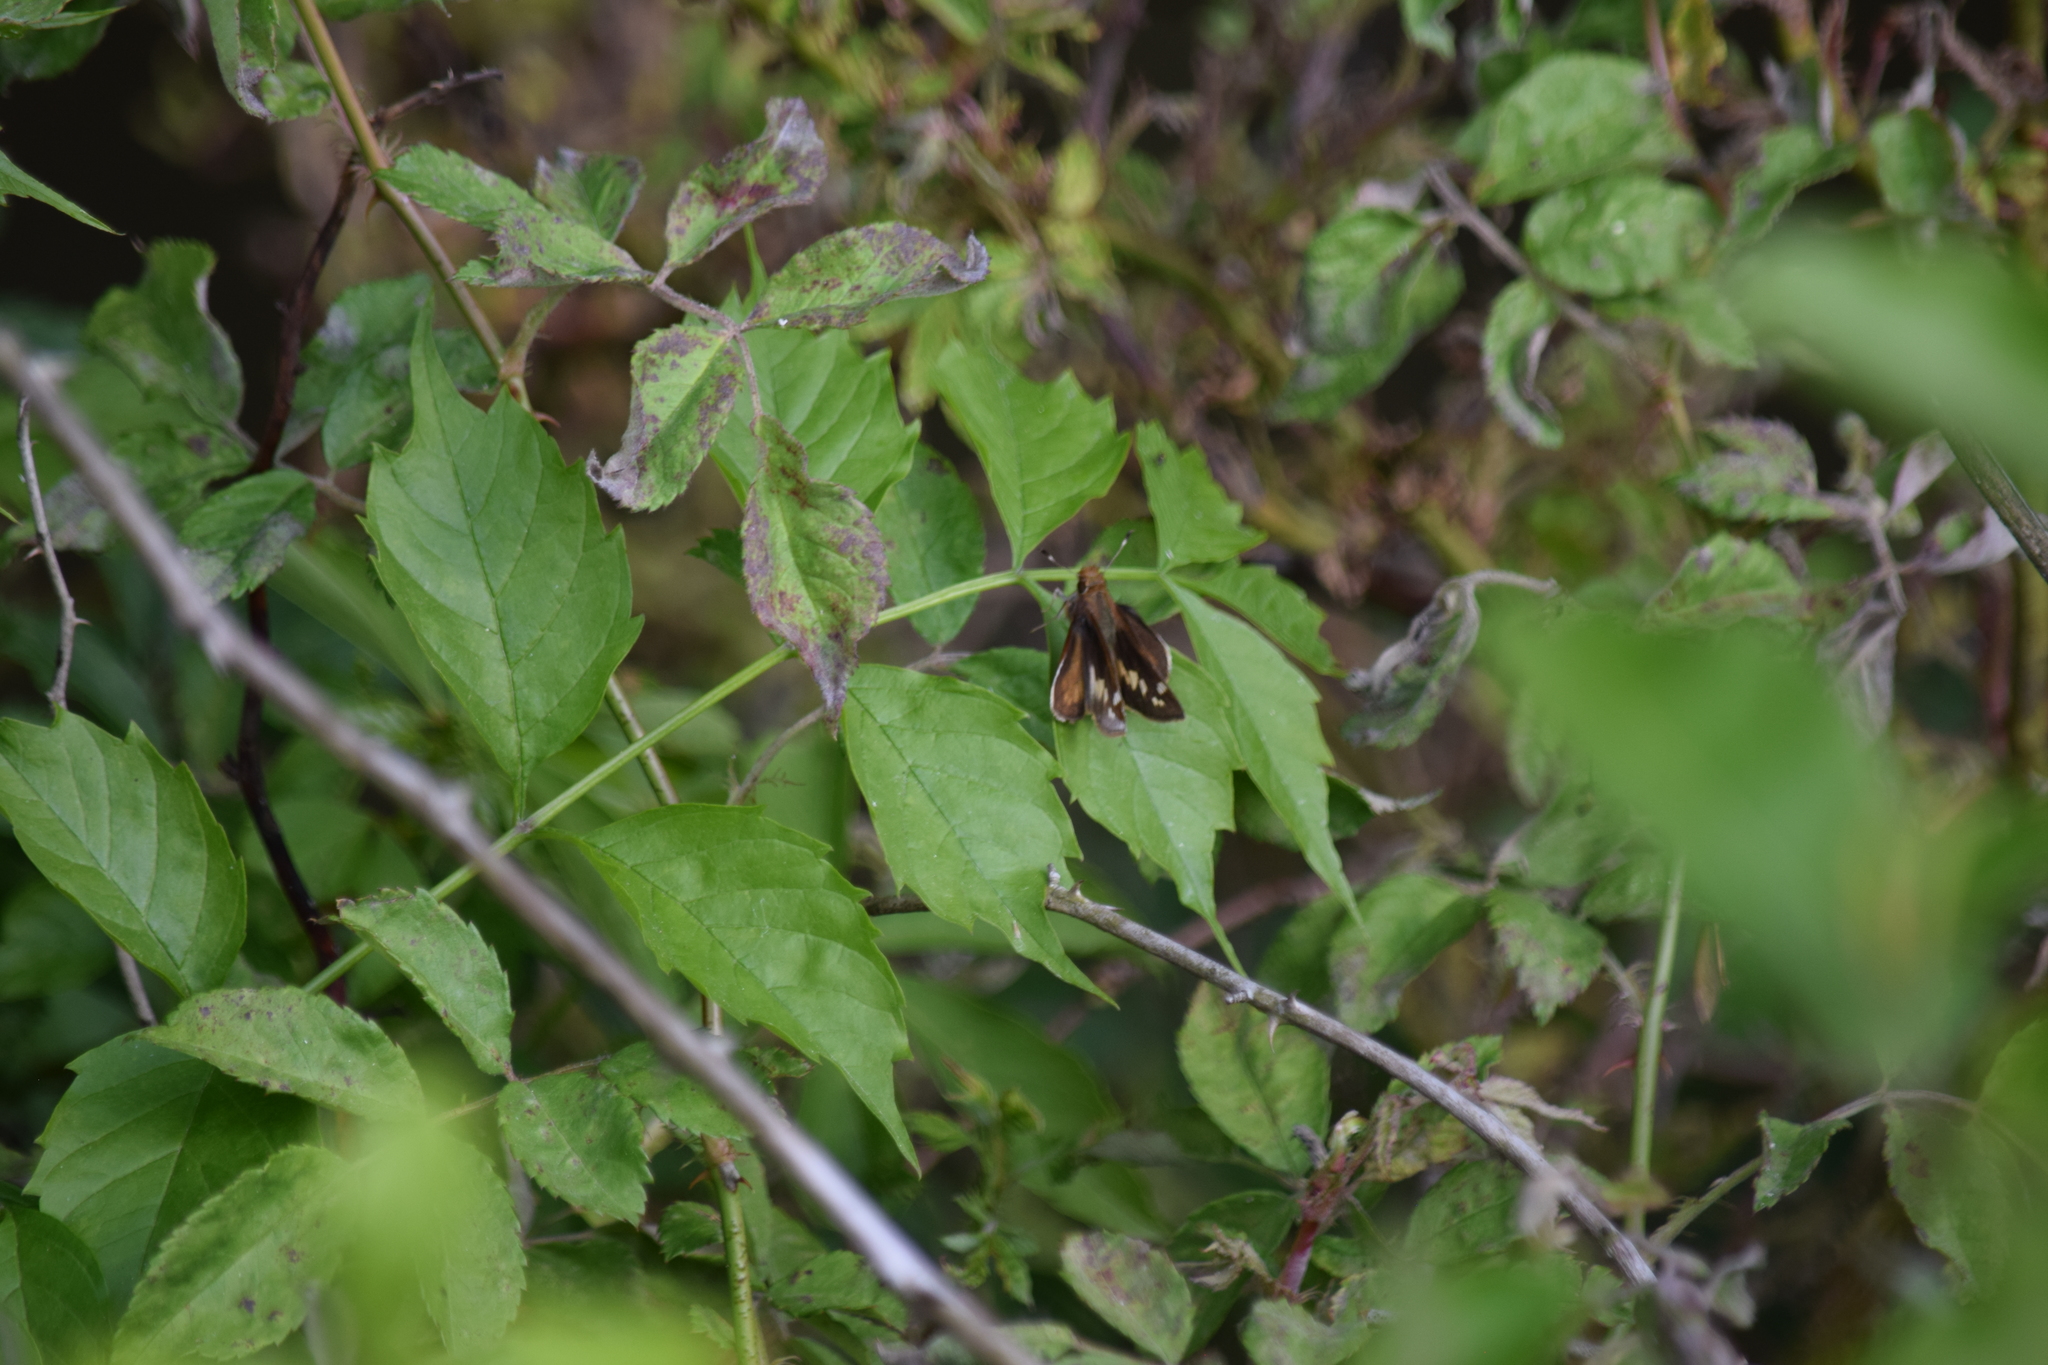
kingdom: Animalia
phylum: Arthropoda
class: Insecta
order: Lepidoptera
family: Hesperiidae
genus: Lon
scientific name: Lon zabulon
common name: Zabulon skipper
